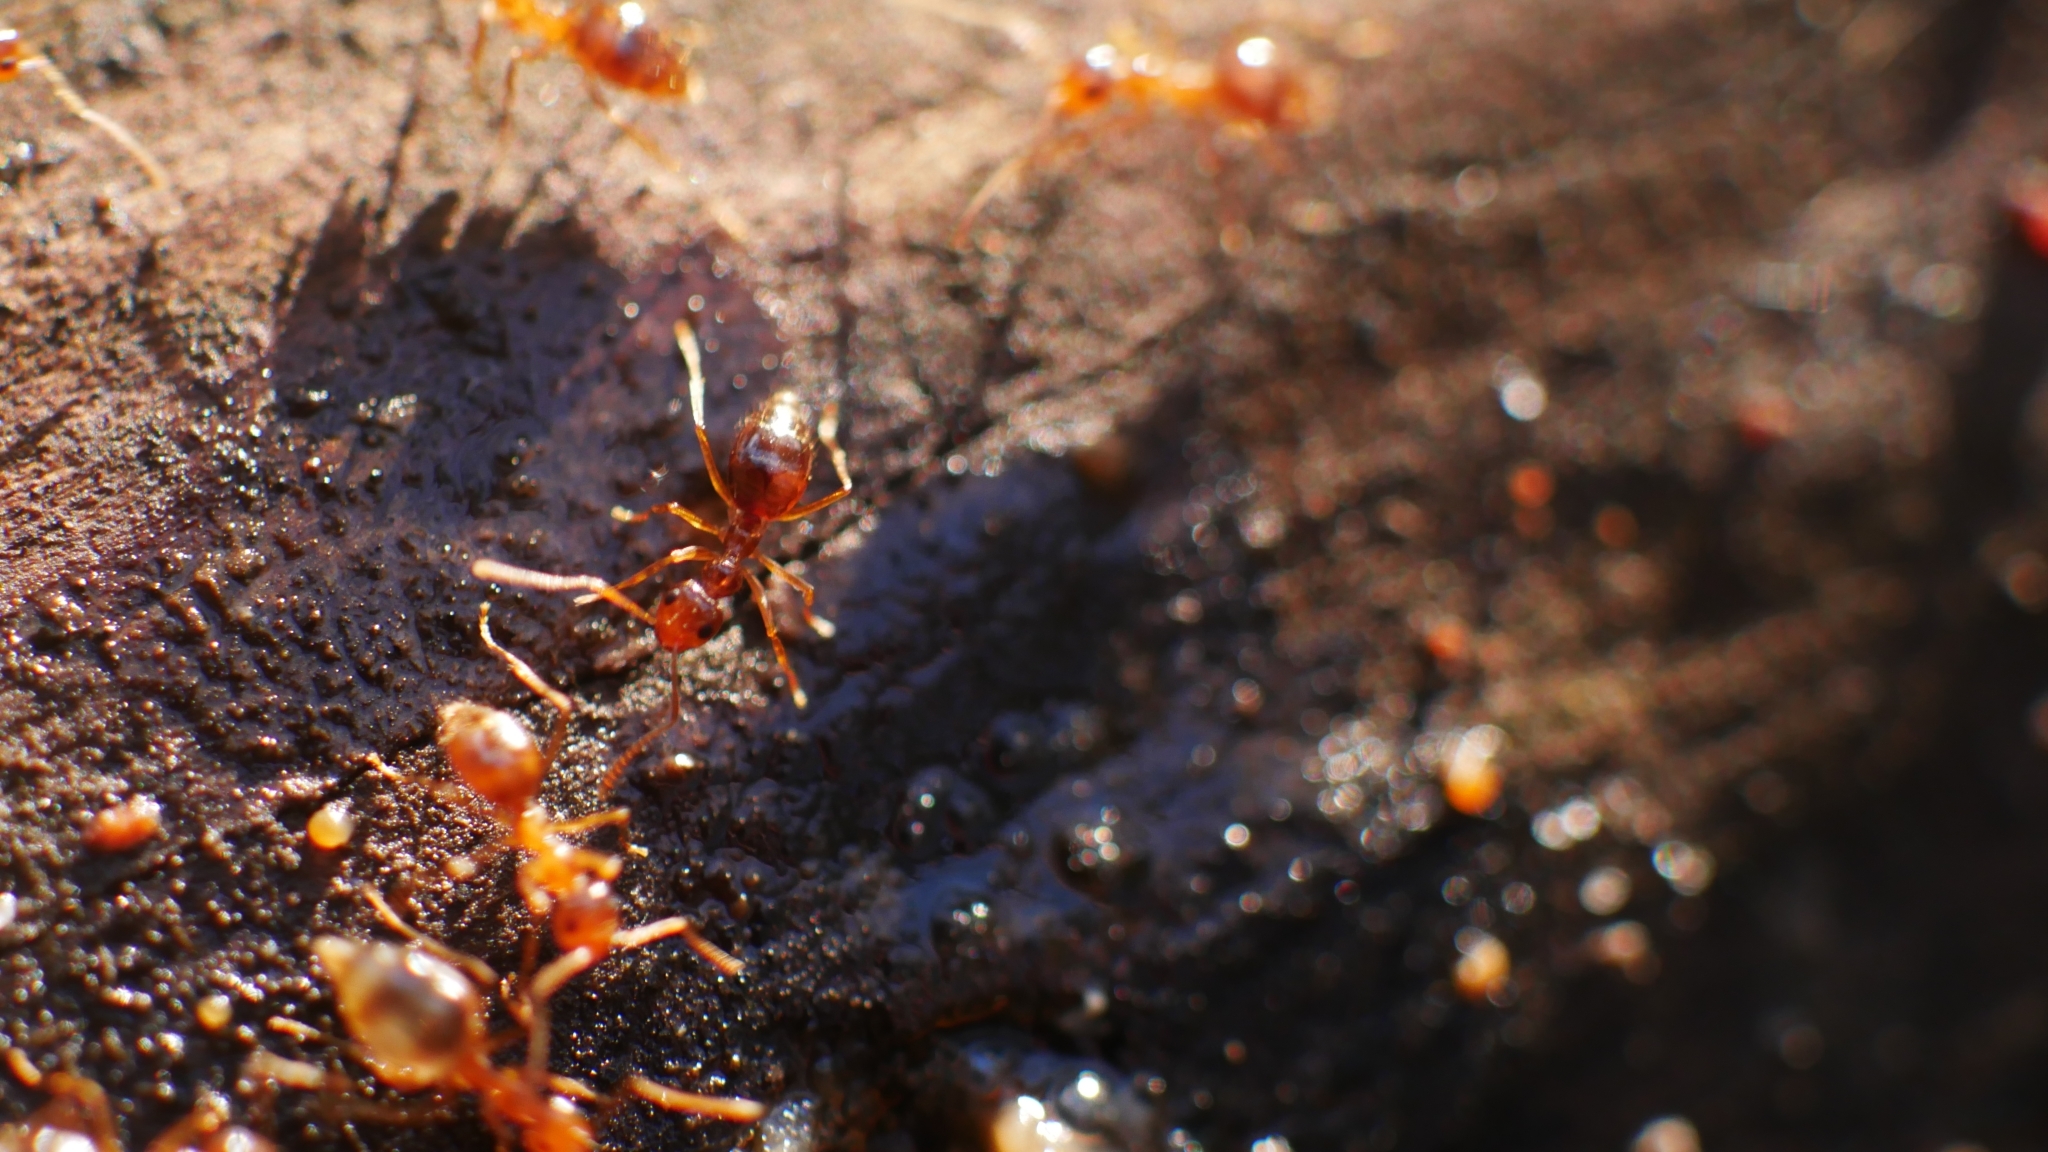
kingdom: Animalia
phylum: Arthropoda
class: Insecta
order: Hymenoptera
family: Formicidae
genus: Prenolepis
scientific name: Prenolepis imparis
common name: Small honey ant
